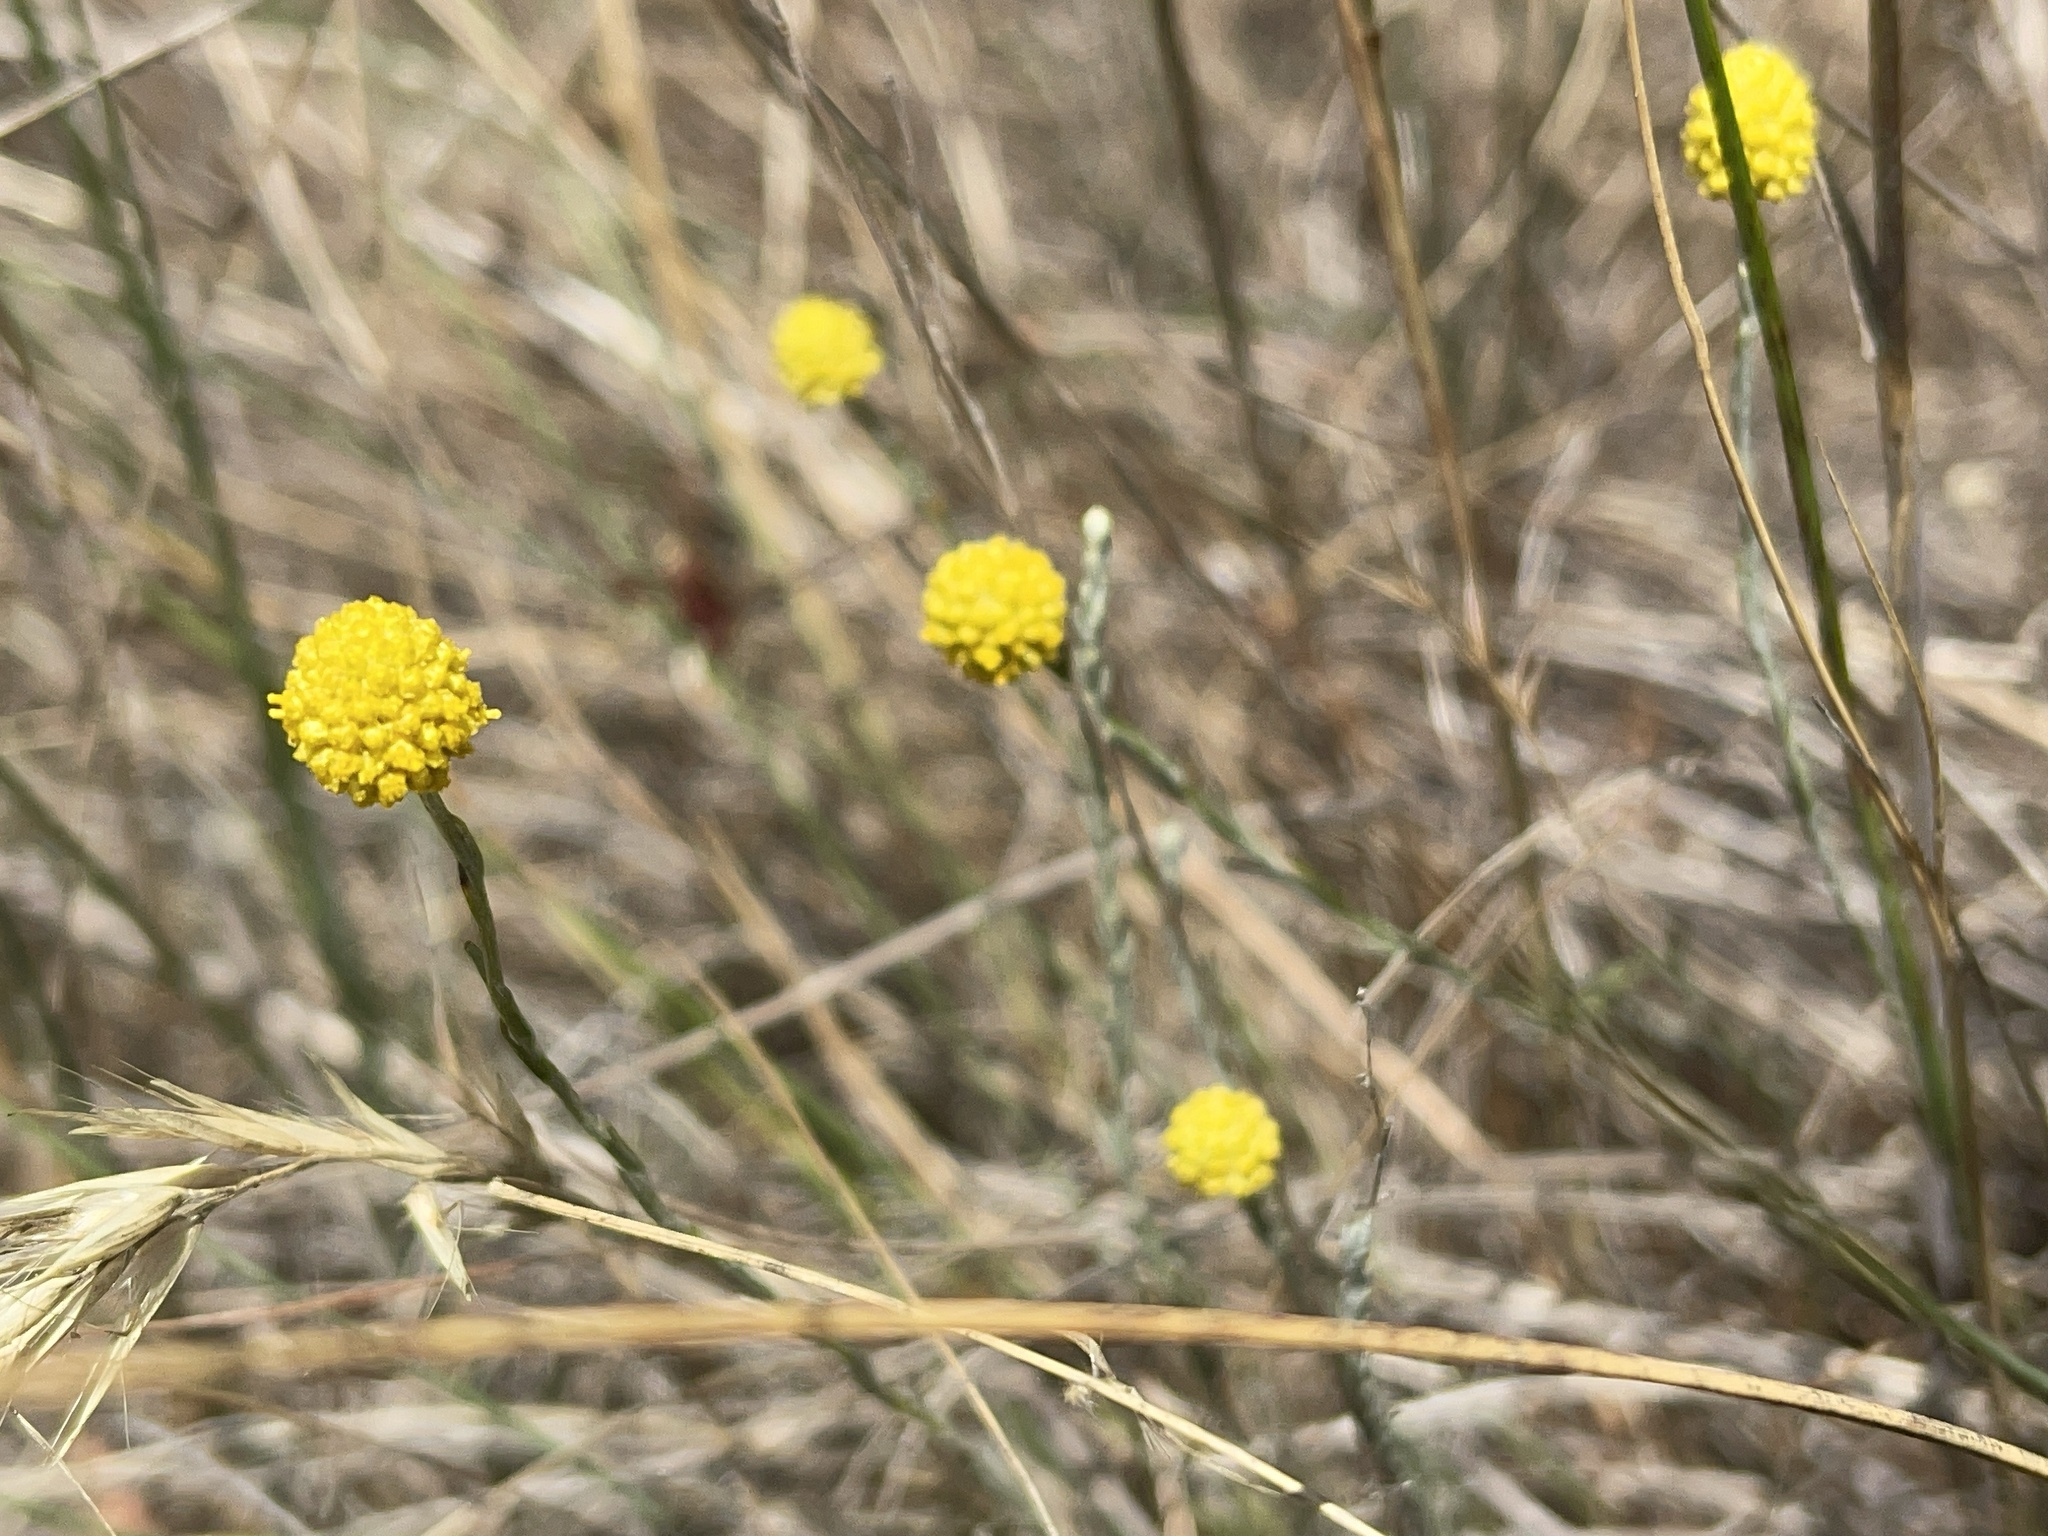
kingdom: Plantae
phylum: Tracheophyta
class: Magnoliopsida
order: Asterales
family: Asteraceae
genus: Calocephalus
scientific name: Calocephalus citreus
